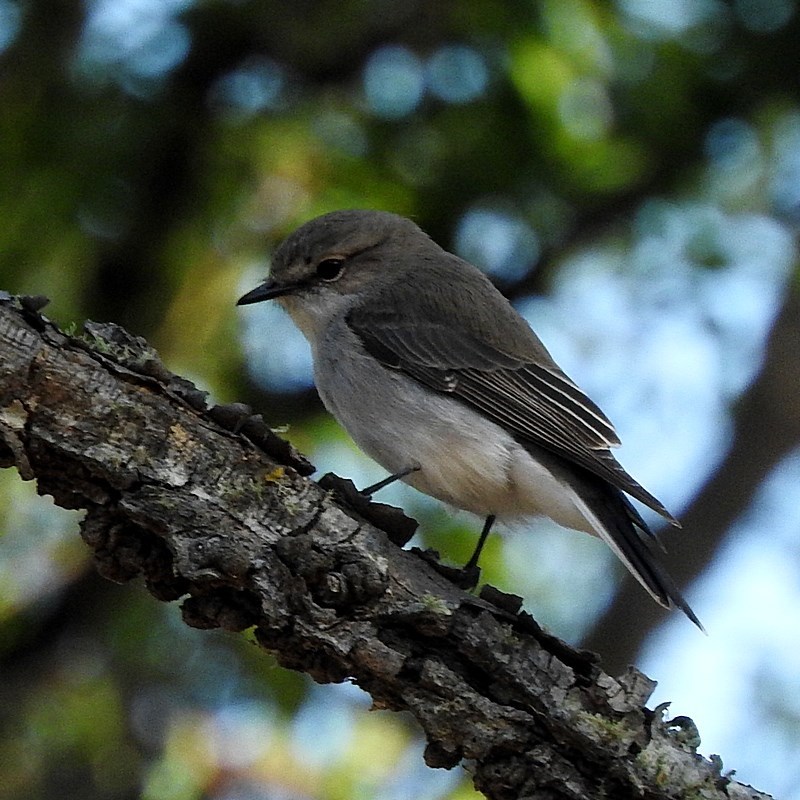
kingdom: Animalia
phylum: Chordata
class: Aves
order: Passeriformes
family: Petroicidae
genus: Microeca
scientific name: Microeca fascinans
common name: Jacky winter
